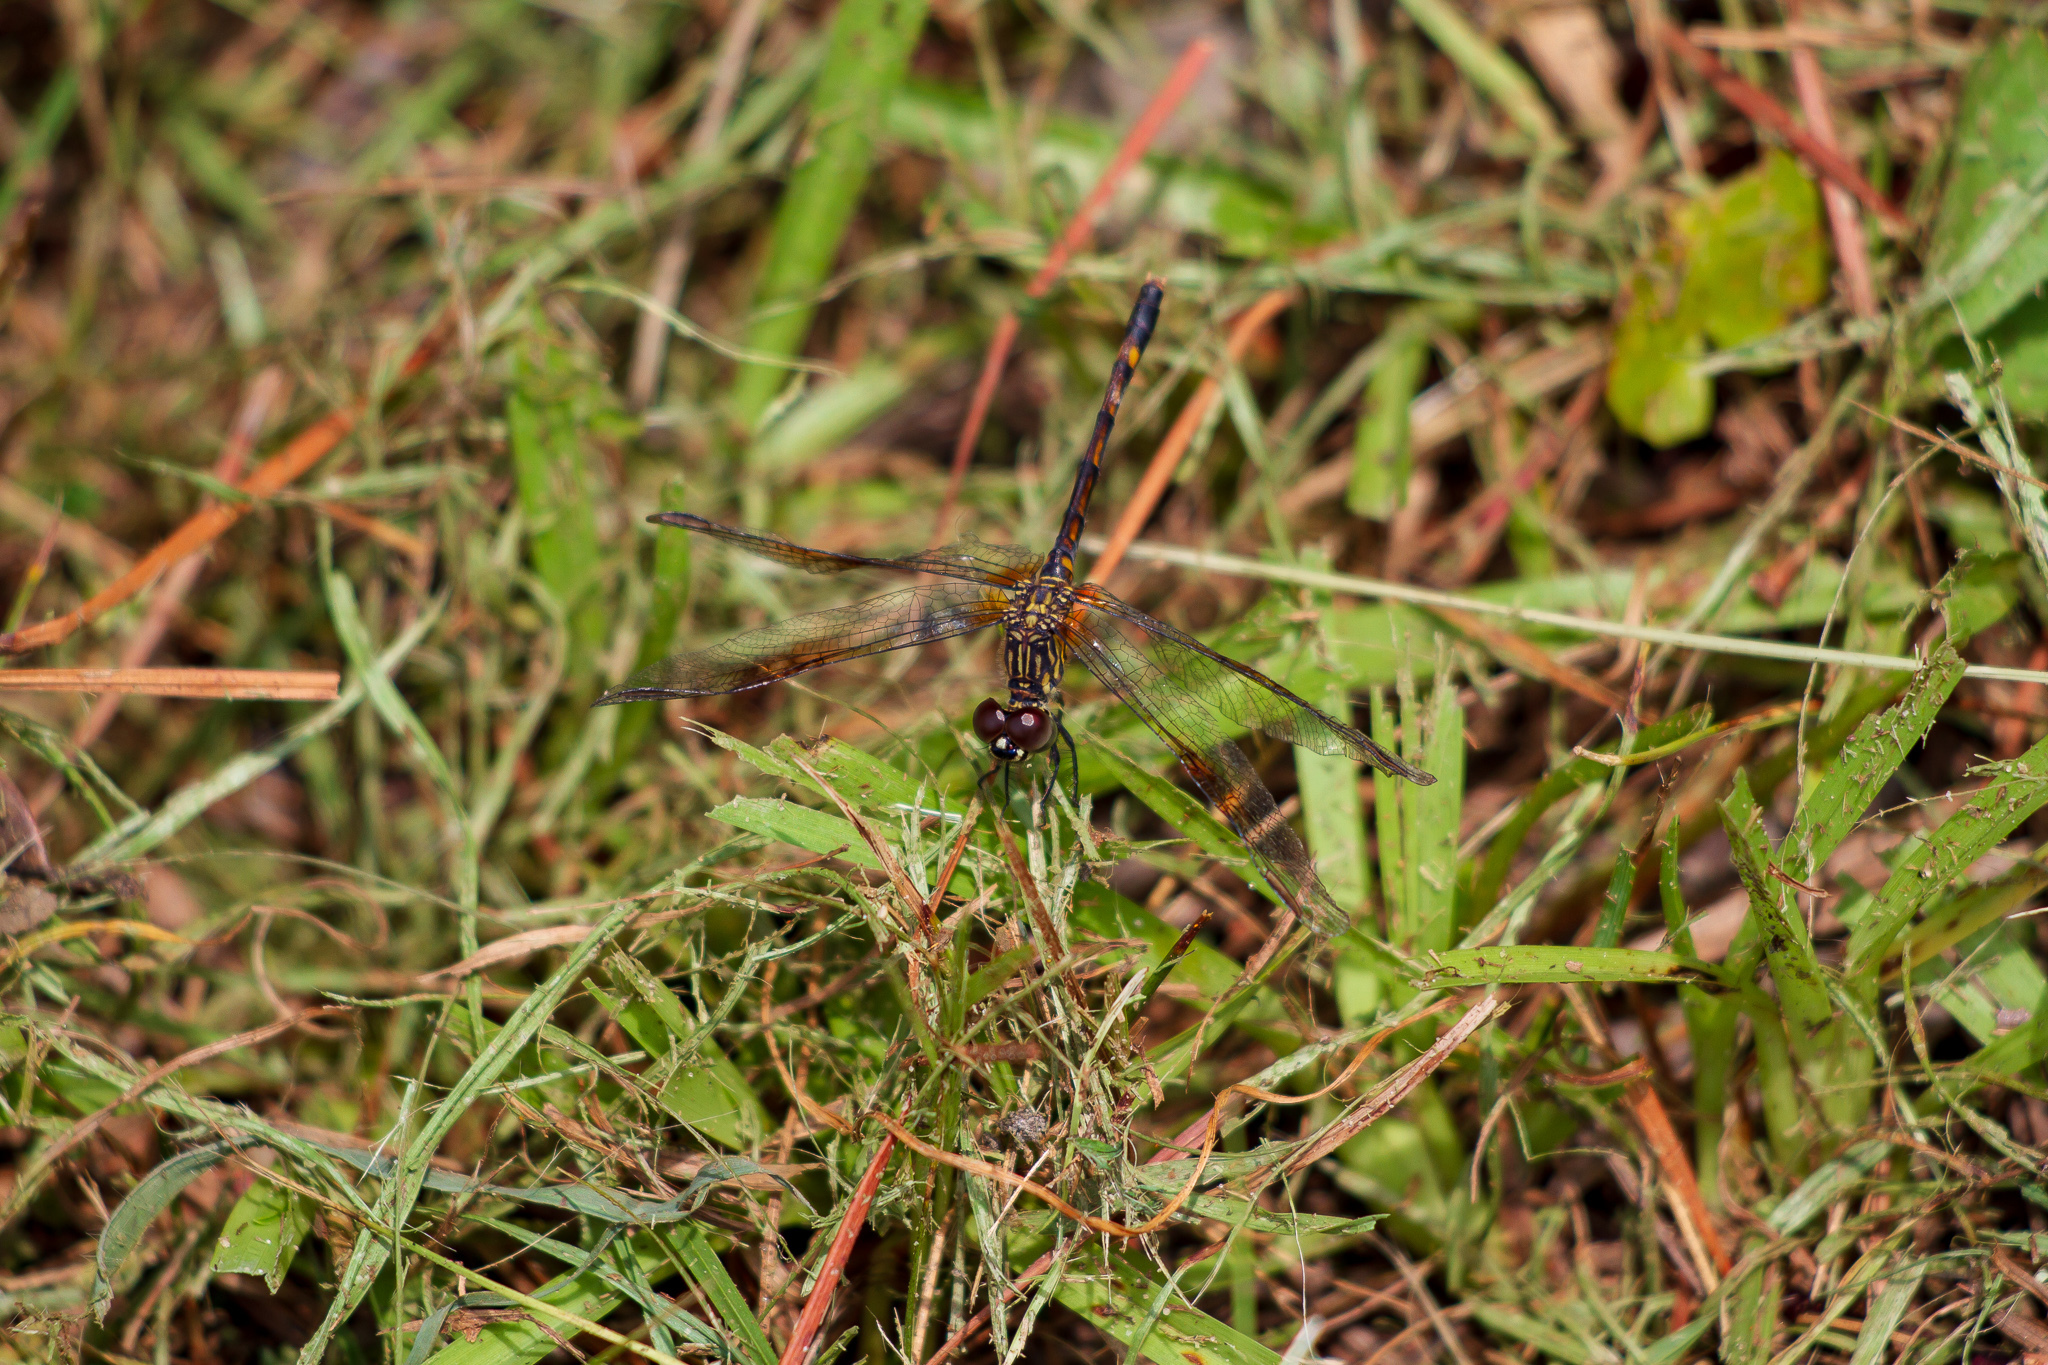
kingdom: Animalia
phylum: Arthropoda
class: Insecta
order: Odonata
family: Libellulidae
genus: Erythrodiplax
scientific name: Erythrodiplax berenice
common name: Seaside dragonlet
